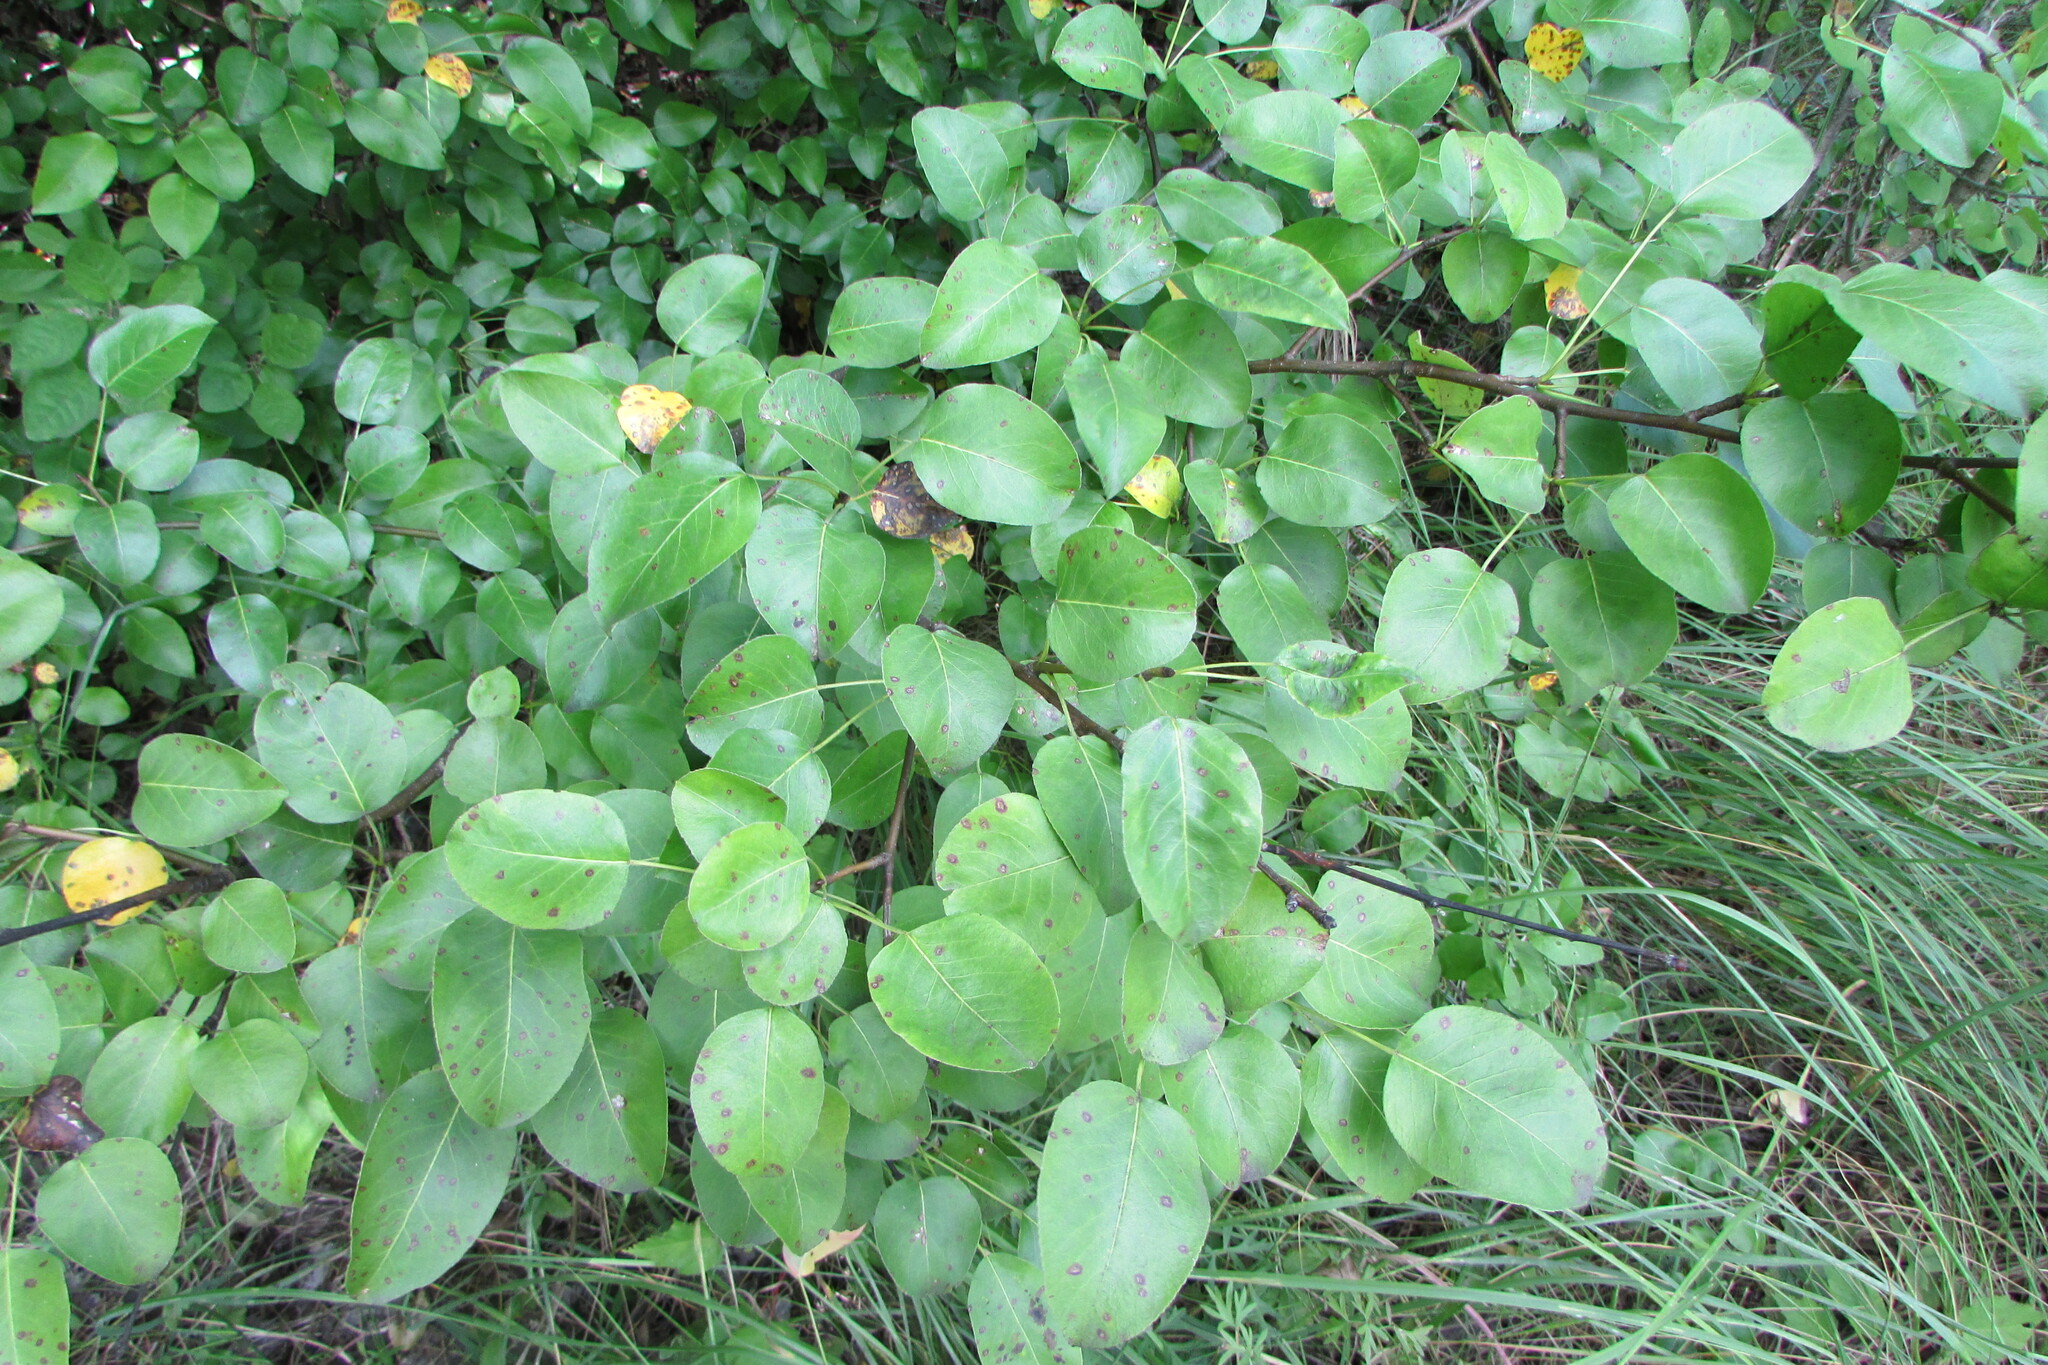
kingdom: Plantae
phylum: Tracheophyta
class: Magnoliopsida
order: Rosales
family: Rosaceae
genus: Pyrus
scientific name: Pyrus communis
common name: Pear
